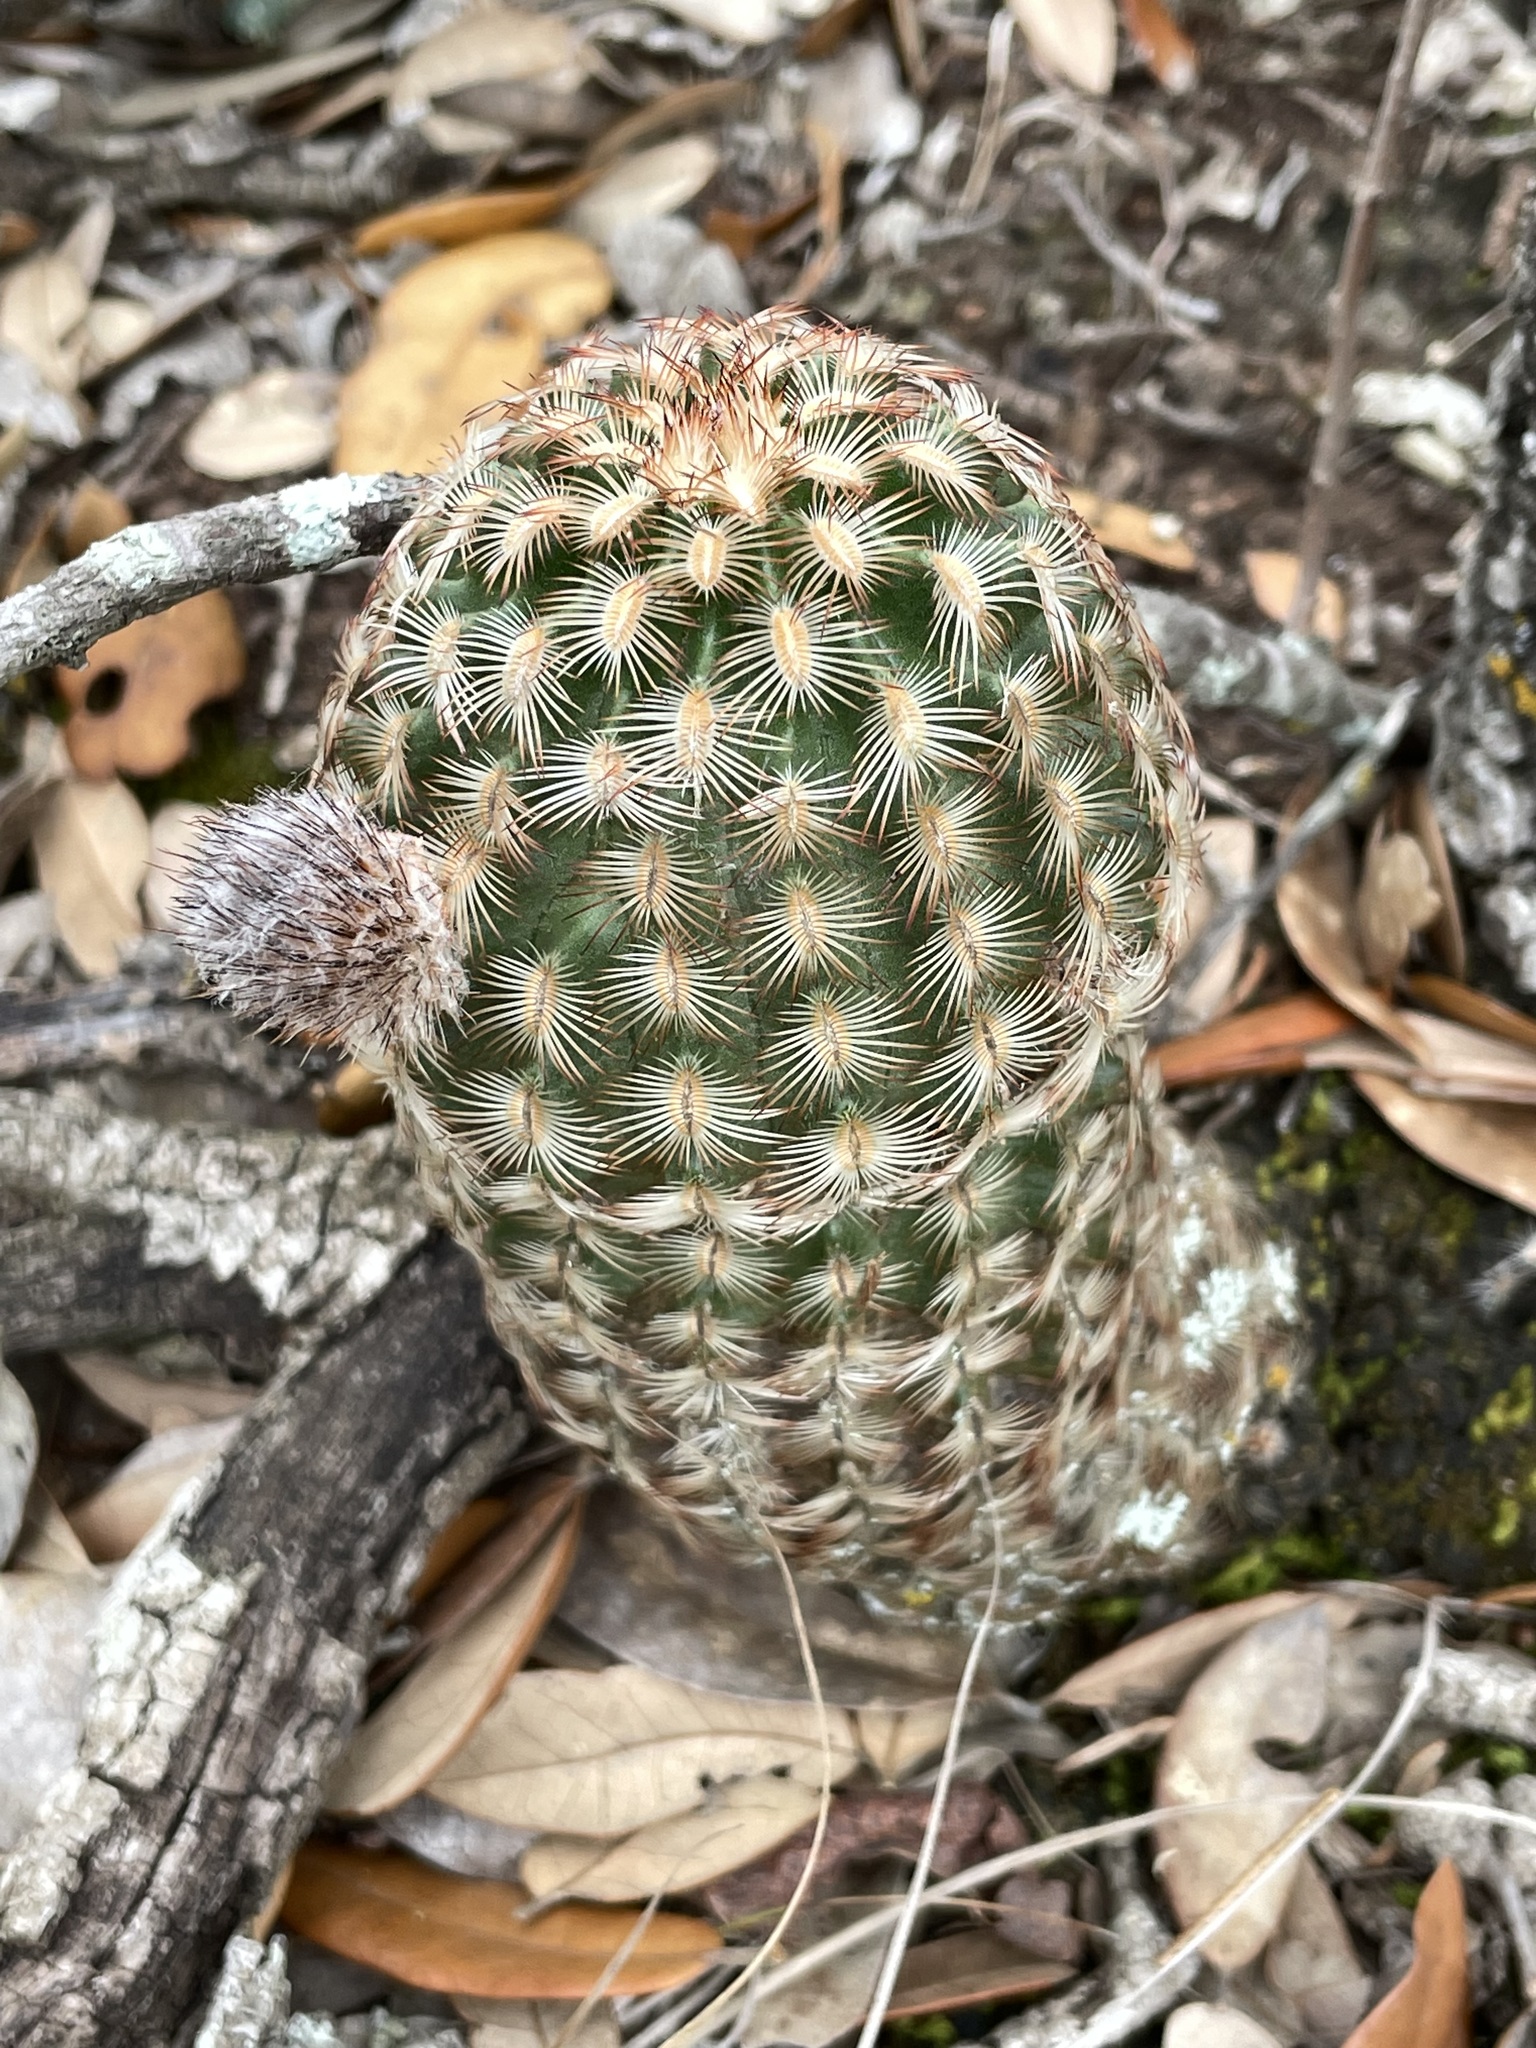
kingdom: Plantae
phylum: Tracheophyta
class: Magnoliopsida
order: Caryophyllales
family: Cactaceae
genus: Echinocereus
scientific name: Echinocereus reichenbachii
